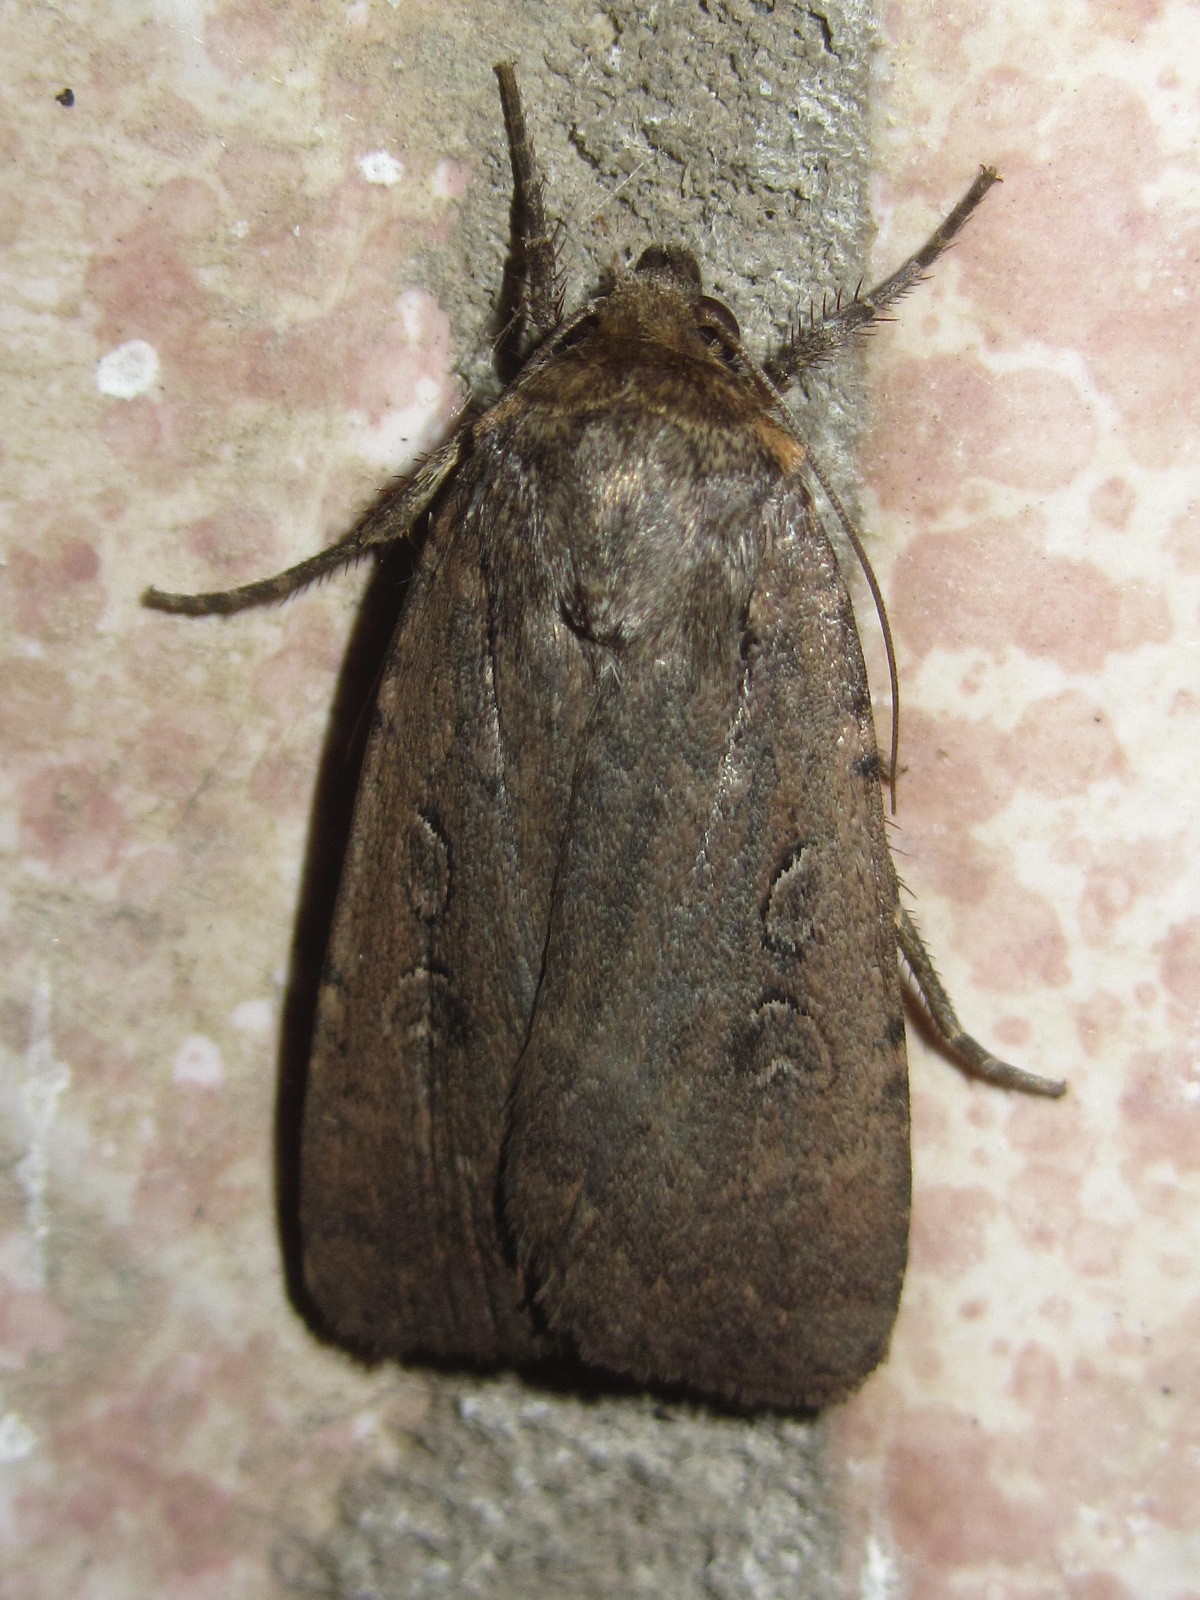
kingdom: Animalia
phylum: Arthropoda
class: Insecta
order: Lepidoptera
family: Noctuidae
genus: Spaelotis
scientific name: Spaelotis ravida
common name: Stout dart
